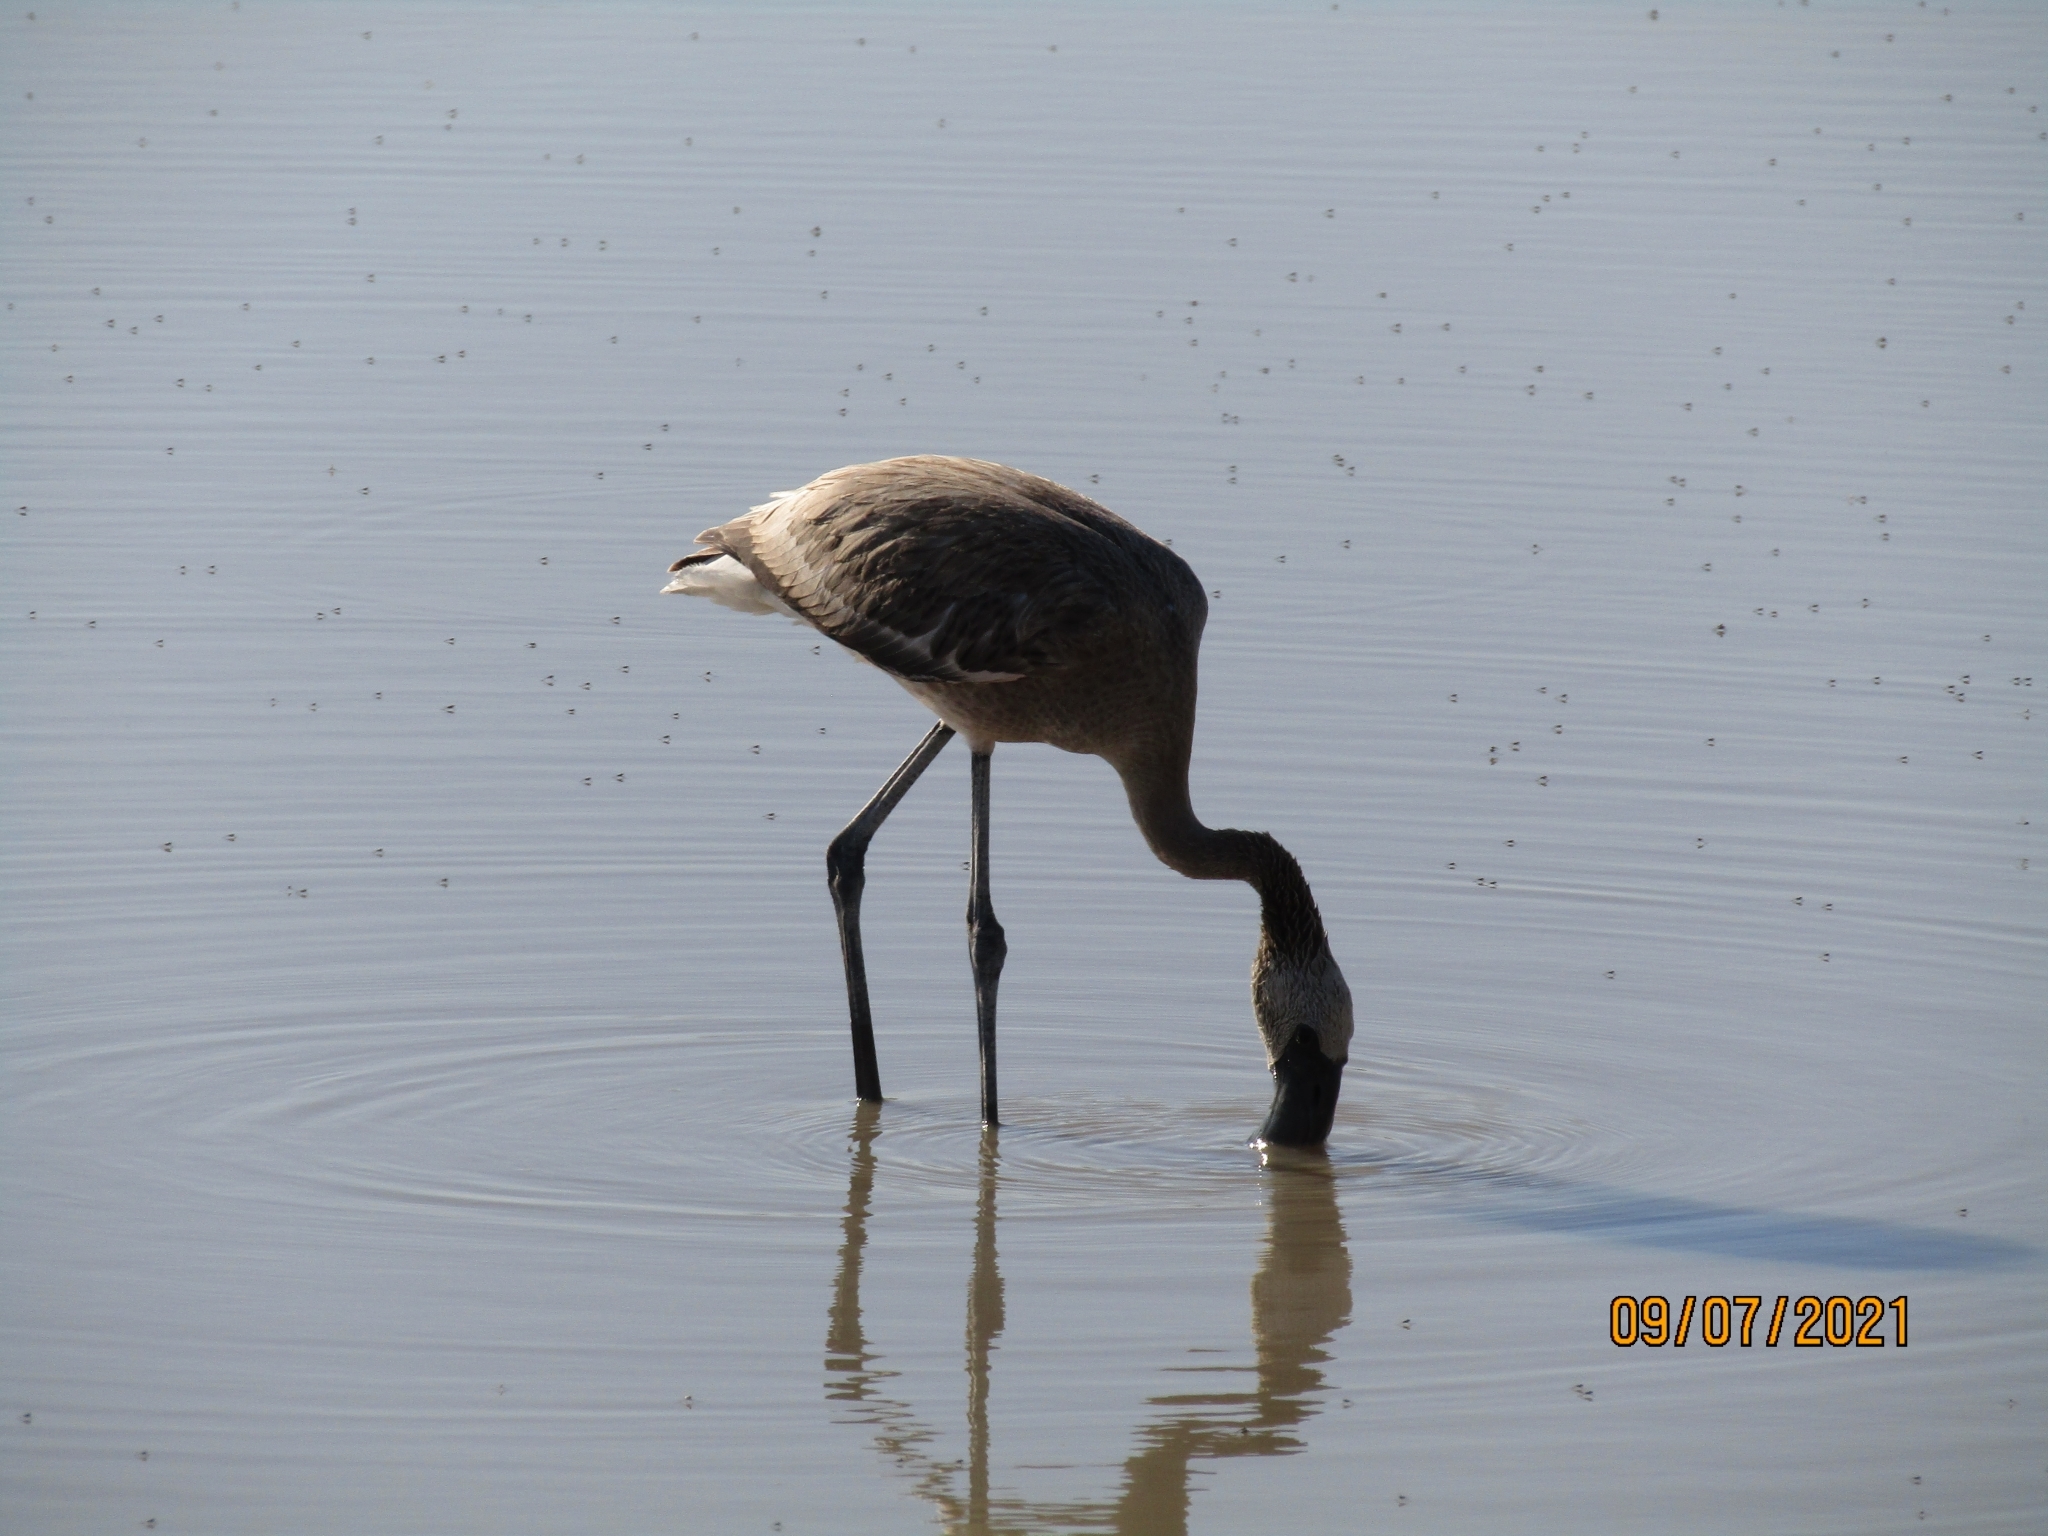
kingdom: Animalia
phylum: Chordata
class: Aves
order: Phoenicopteriformes
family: Phoenicopteridae
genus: Phoeniconaias
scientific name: Phoeniconaias minor
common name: Lesser flamingo
